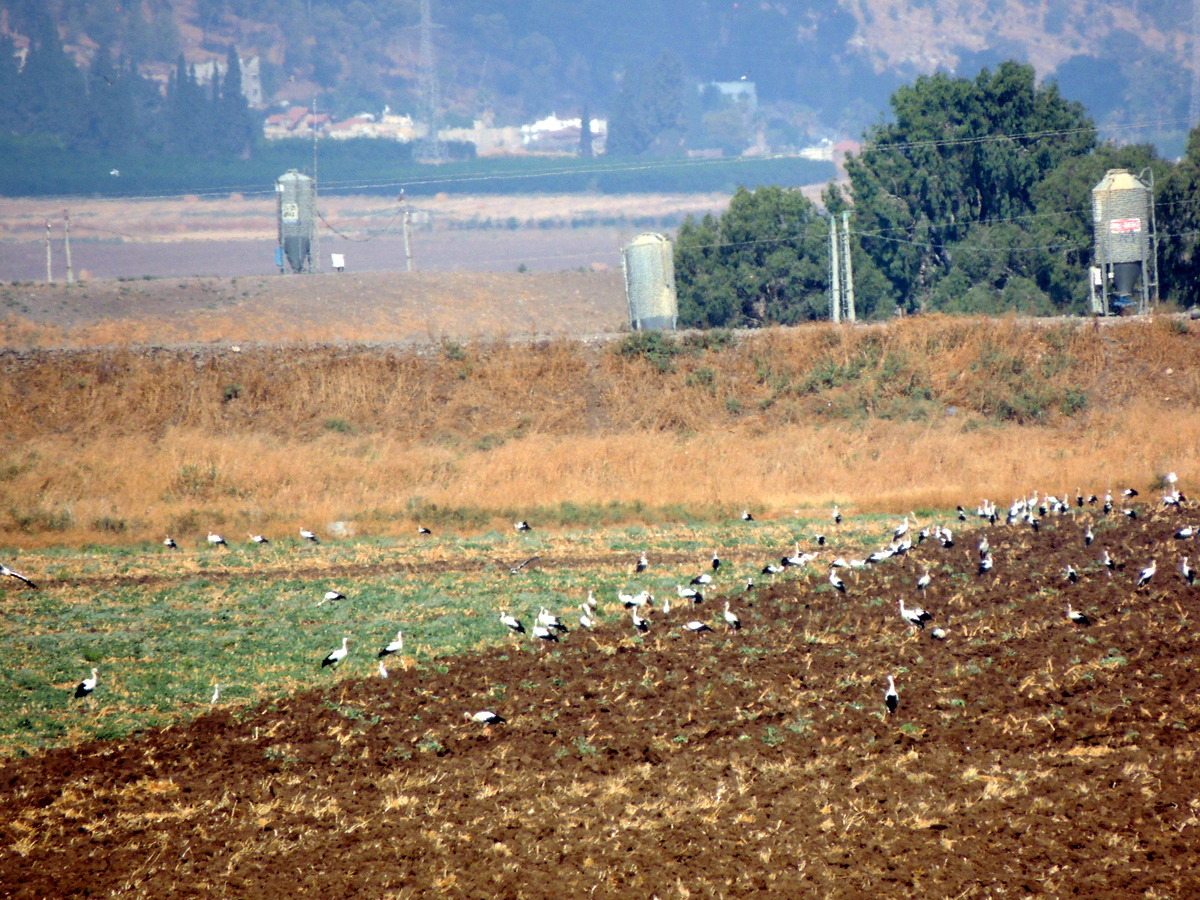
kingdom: Animalia
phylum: Chordata
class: Aves
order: Ciconiiformes
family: Ciconiidae
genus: Ciconia
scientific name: Ciconia ciconia
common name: White stork
